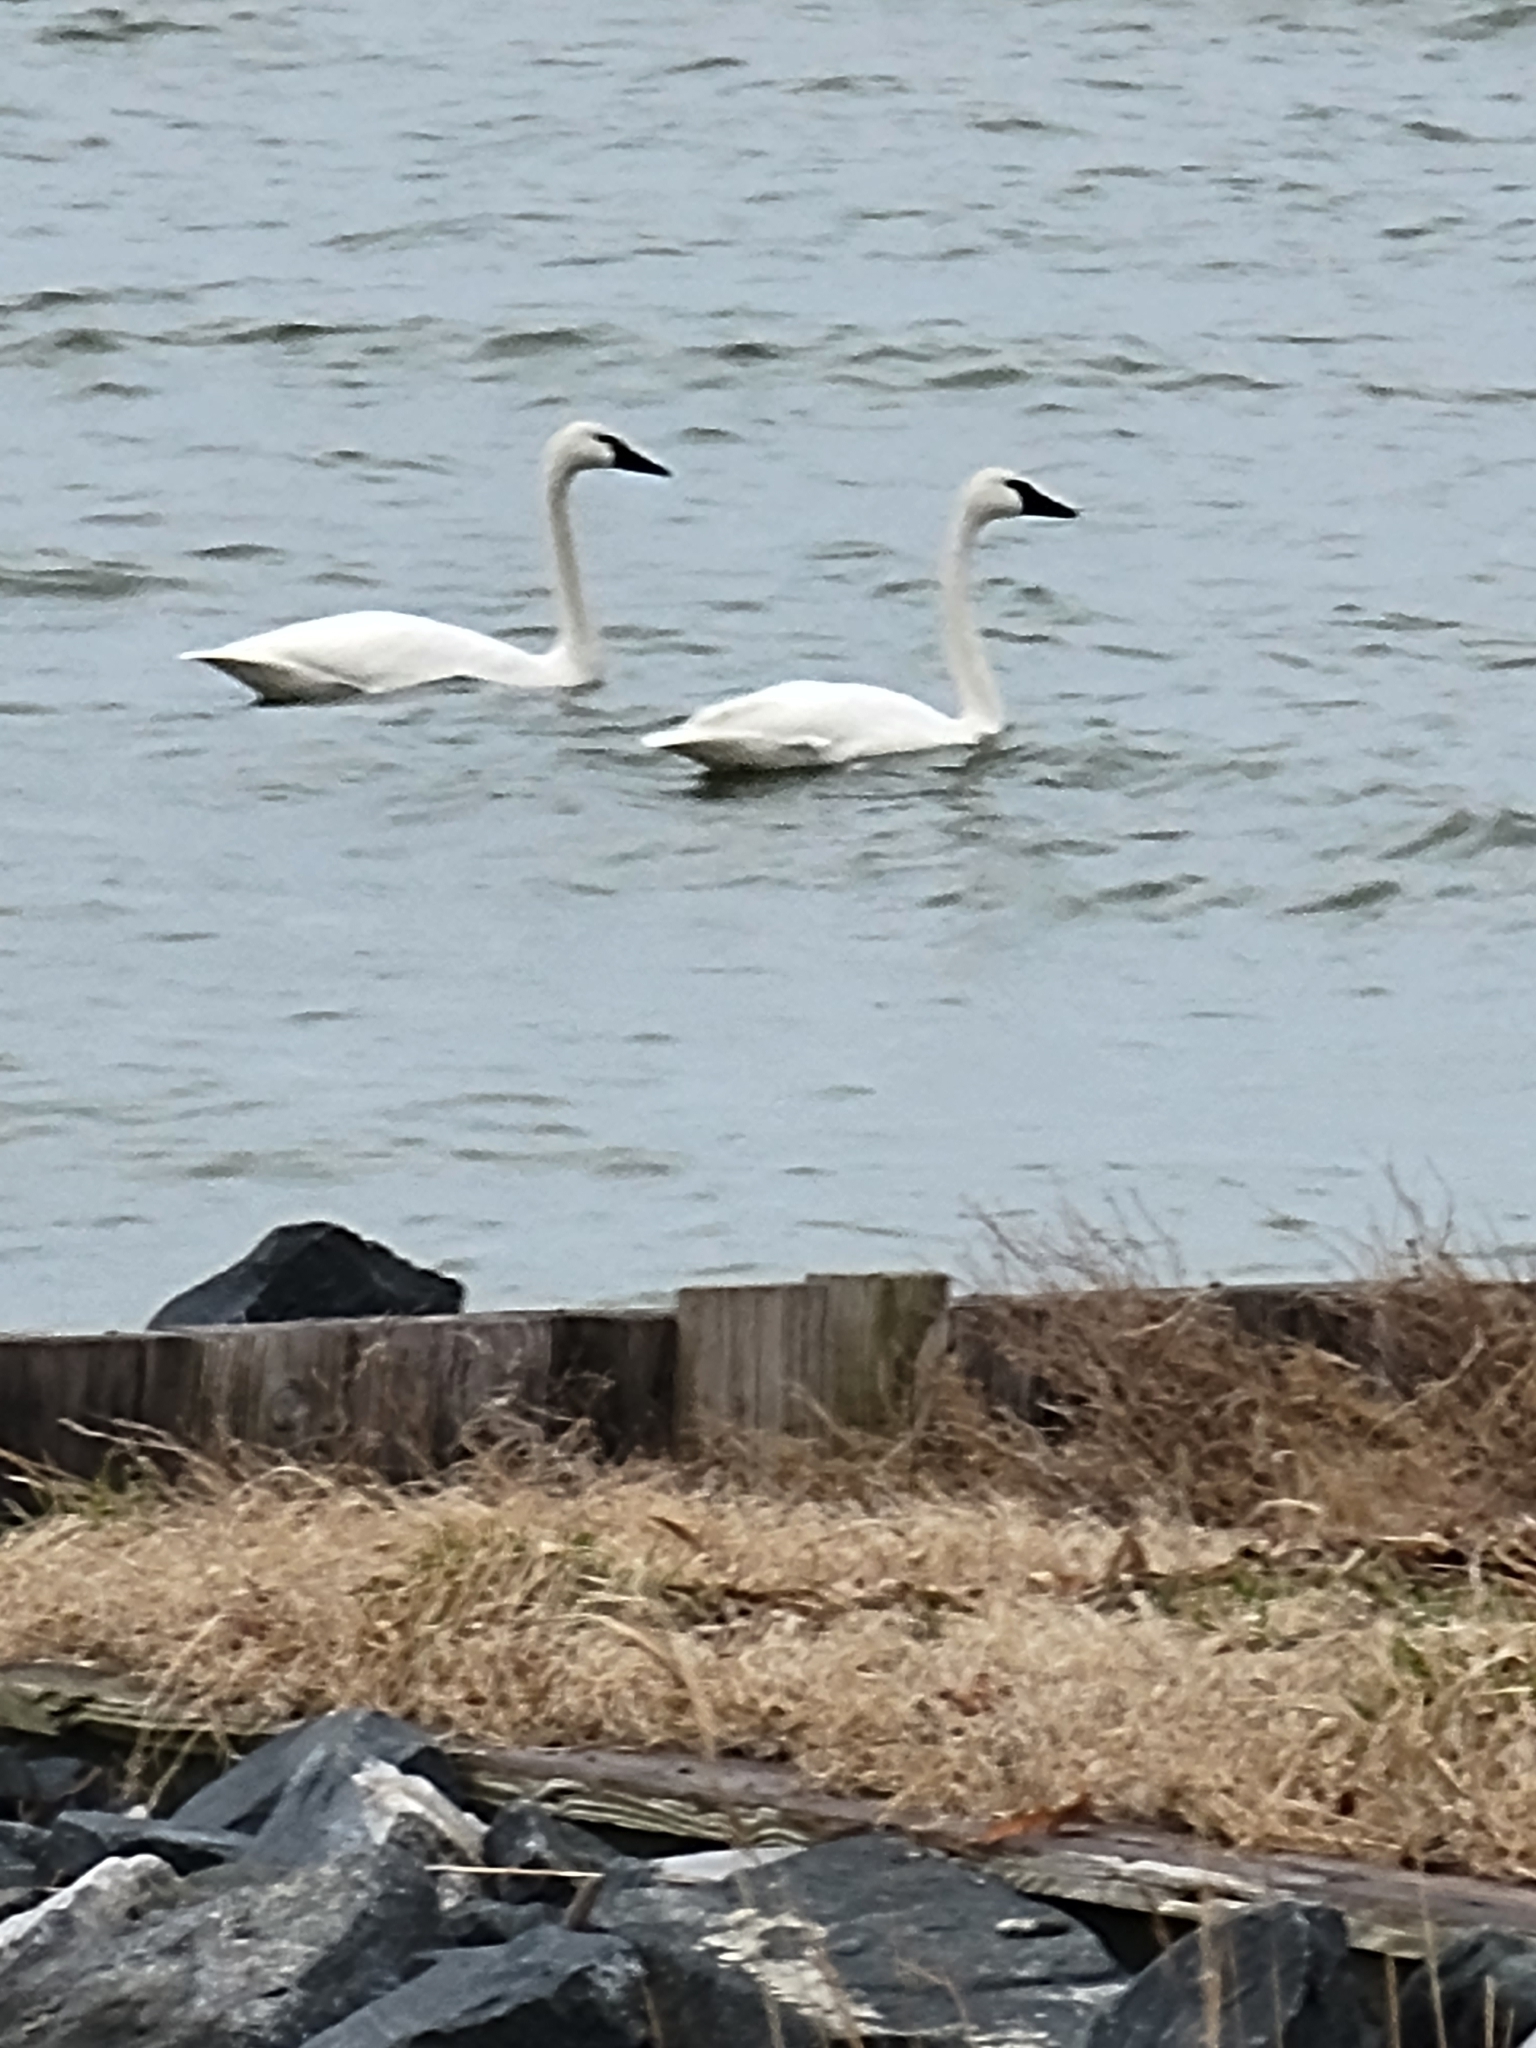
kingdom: Animalia
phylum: Chordata
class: Aves
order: Anseriformes
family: Anatidae
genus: Cygnus
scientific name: Cygnus columbianus
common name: Tundra swan
